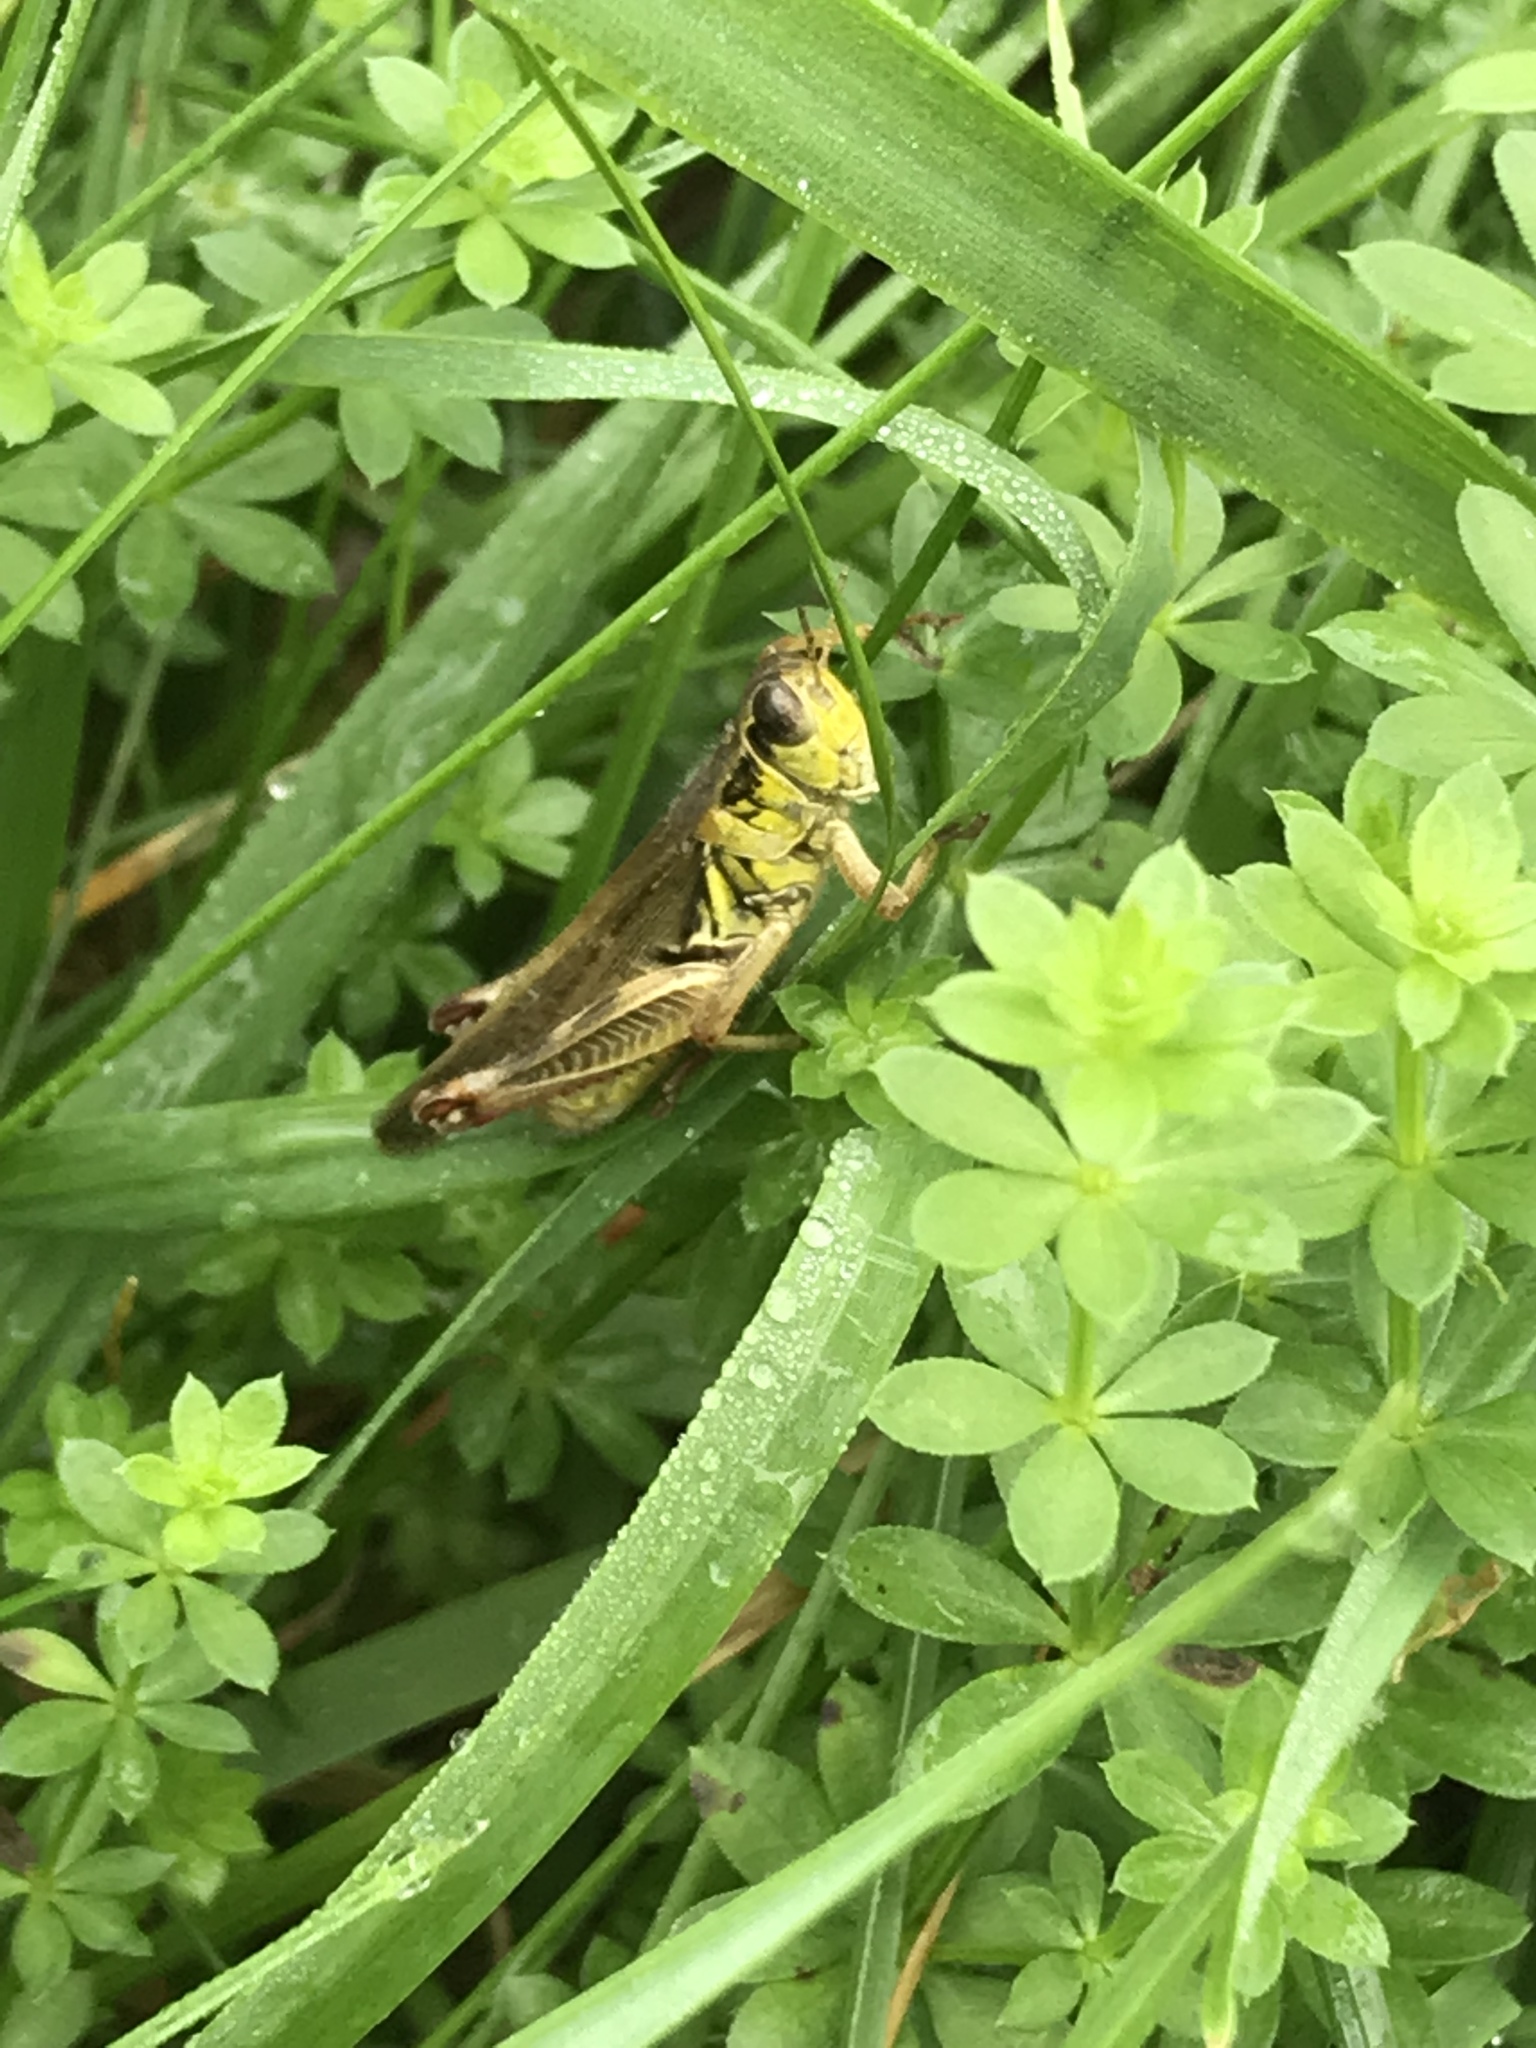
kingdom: Animalia
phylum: Arthropoda
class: Insecta
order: Orthoptera
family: Acrididae
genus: Melanoplus
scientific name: Melanoplus femurrubrum
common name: Red-legged grasshopper
